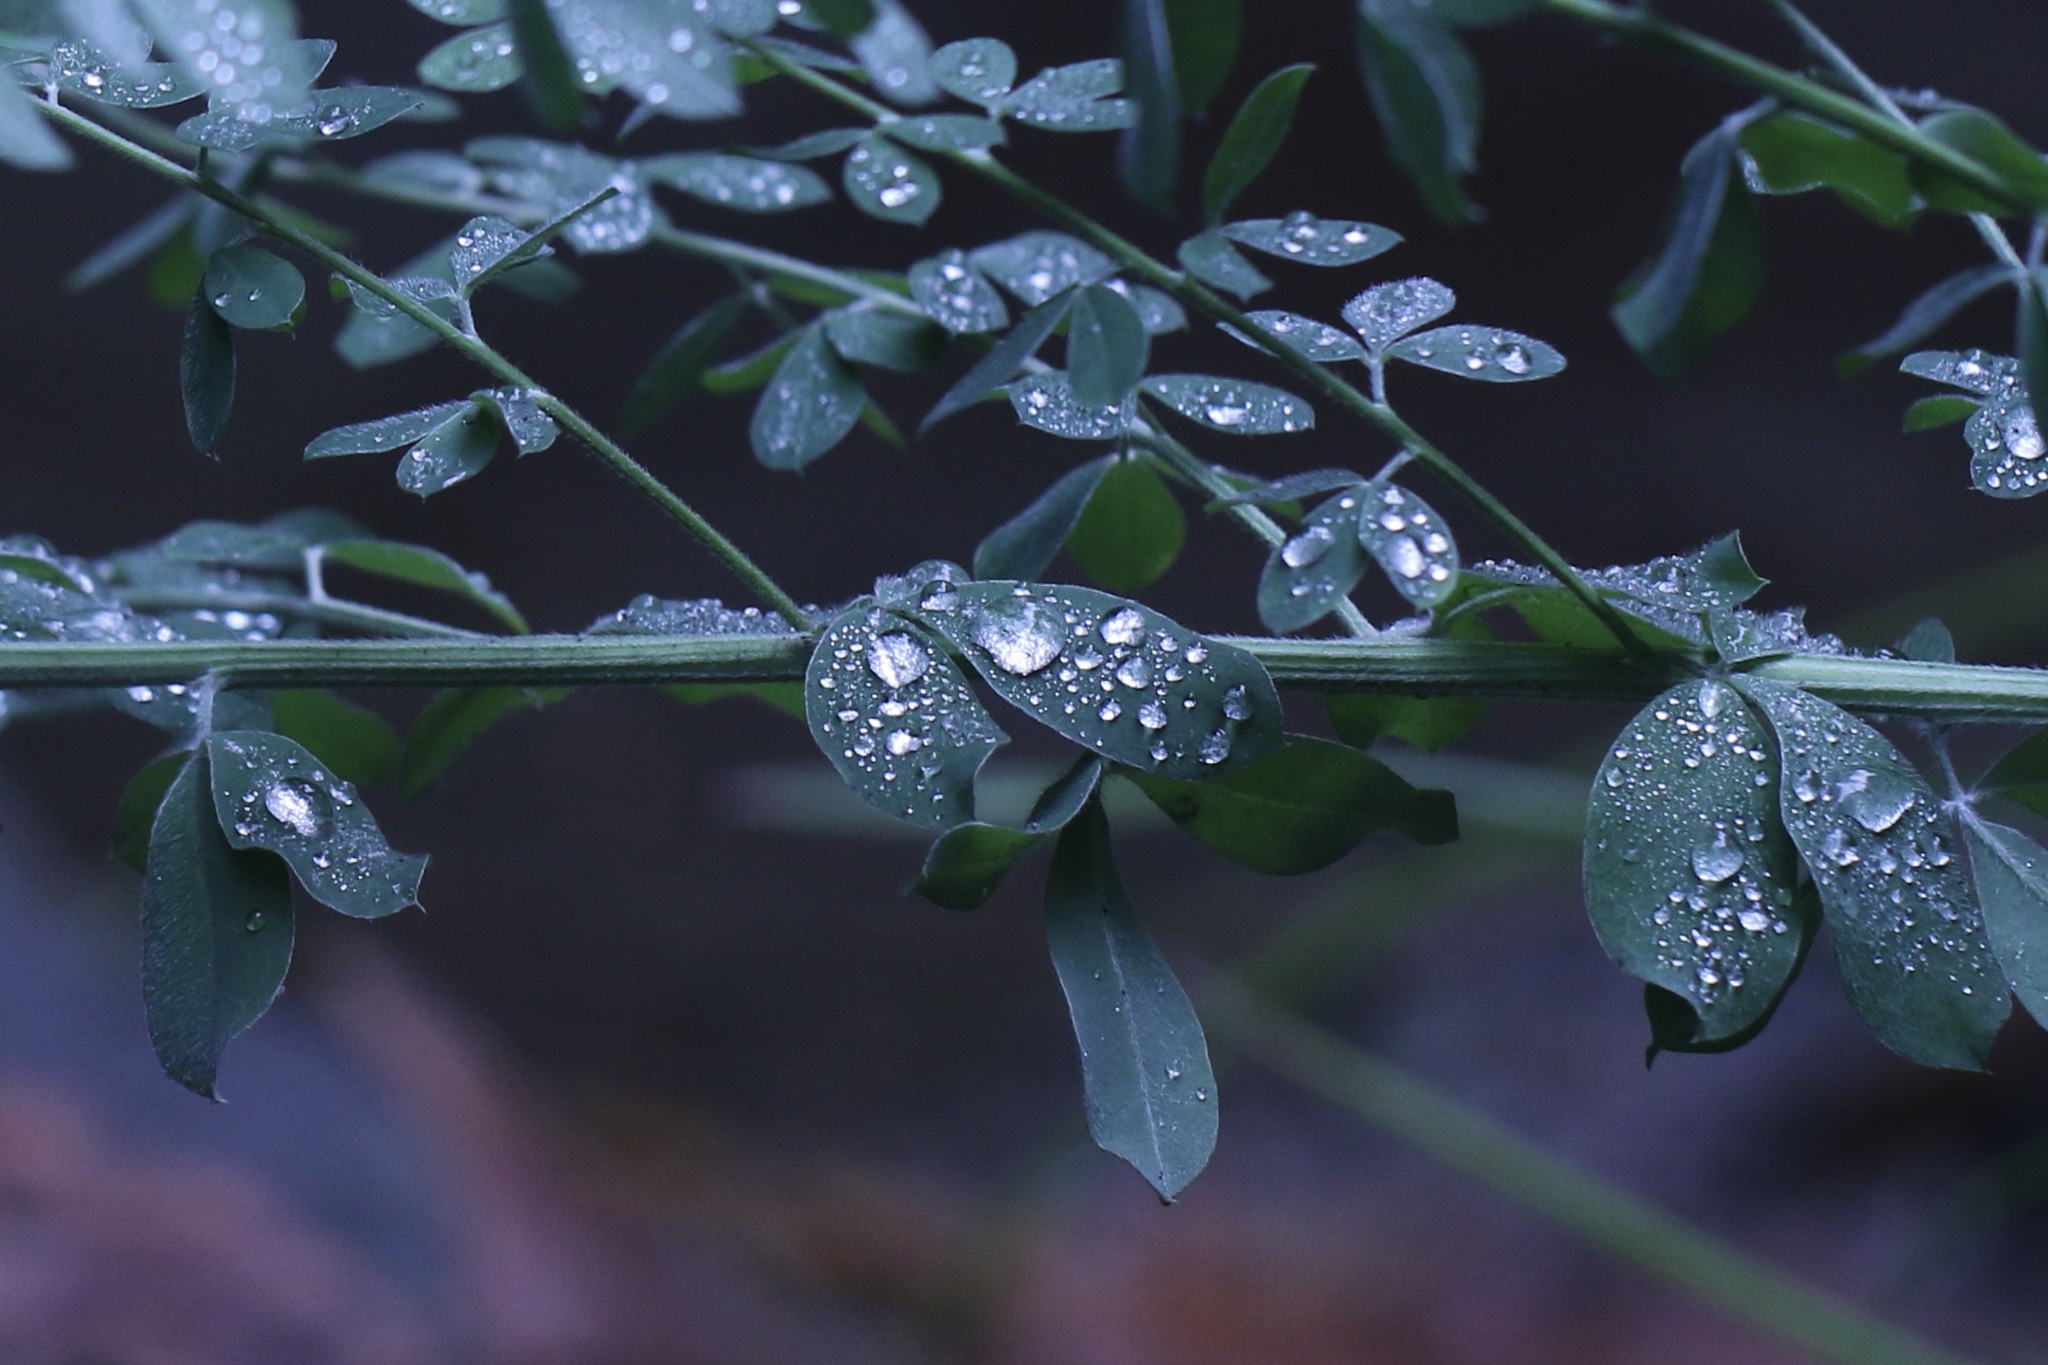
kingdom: Plantae
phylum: Tracheophyta
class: Magnoliopsida
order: Fabales
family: Fabaceae
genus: Genista
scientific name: Genista monspessulana
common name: Montpellier broom
